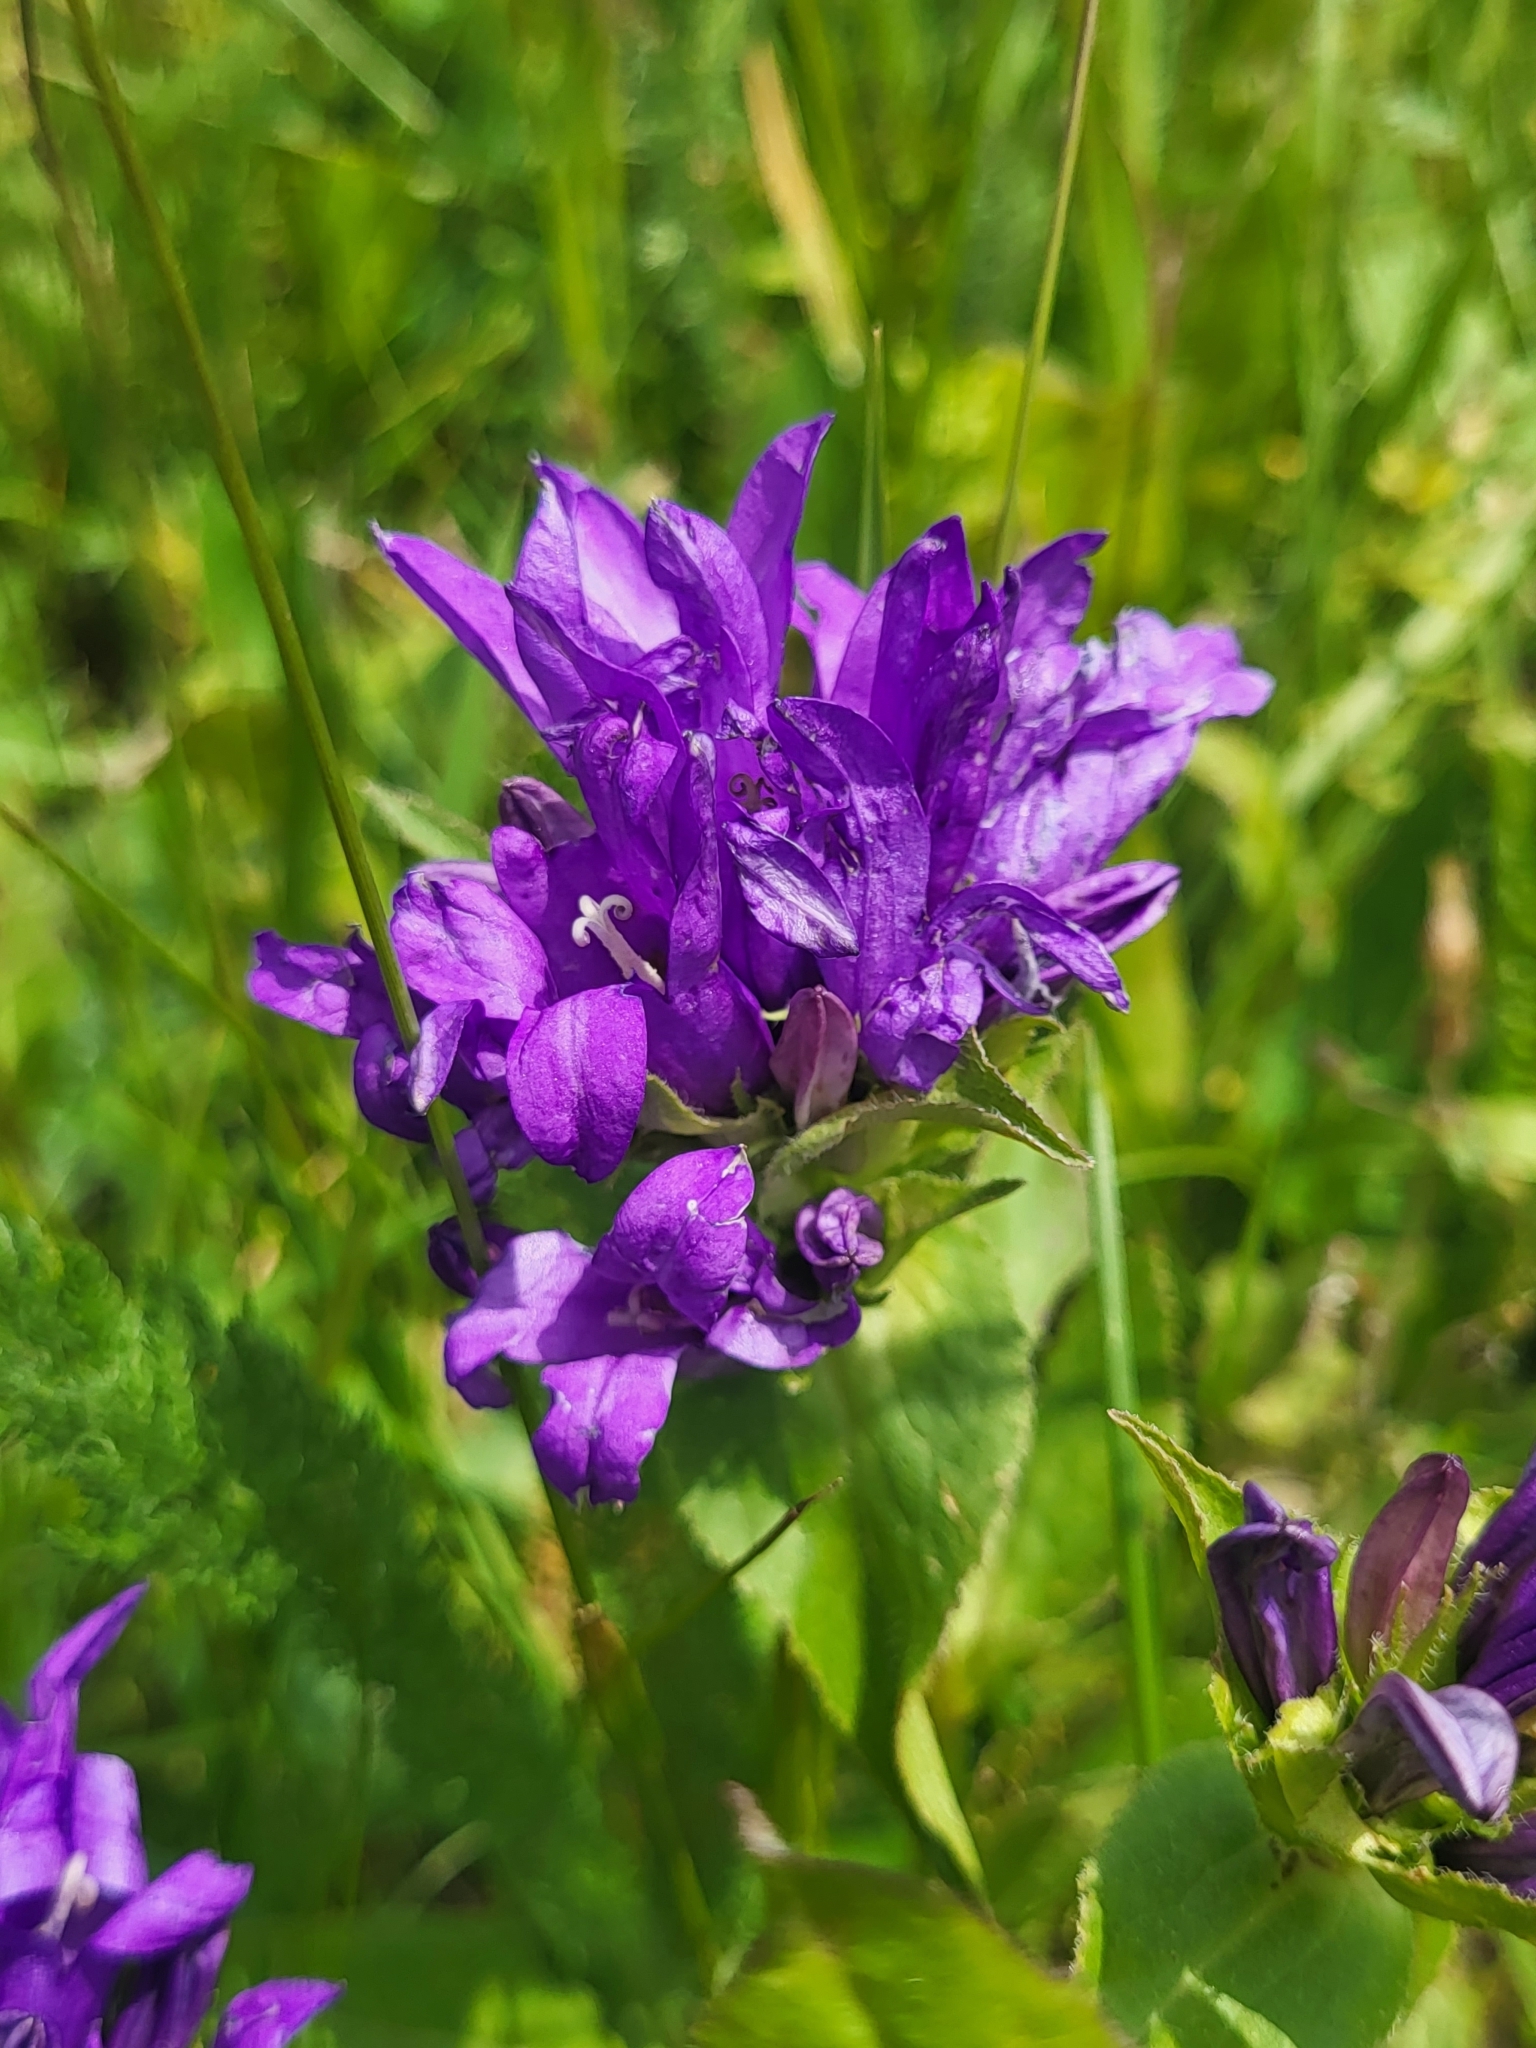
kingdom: Plantae
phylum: Tracheophyta
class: Magnoliopsida
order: Asterales
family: Campanulaceae
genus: Campanula
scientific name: Campanula glomerata
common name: Clustered bellflower
